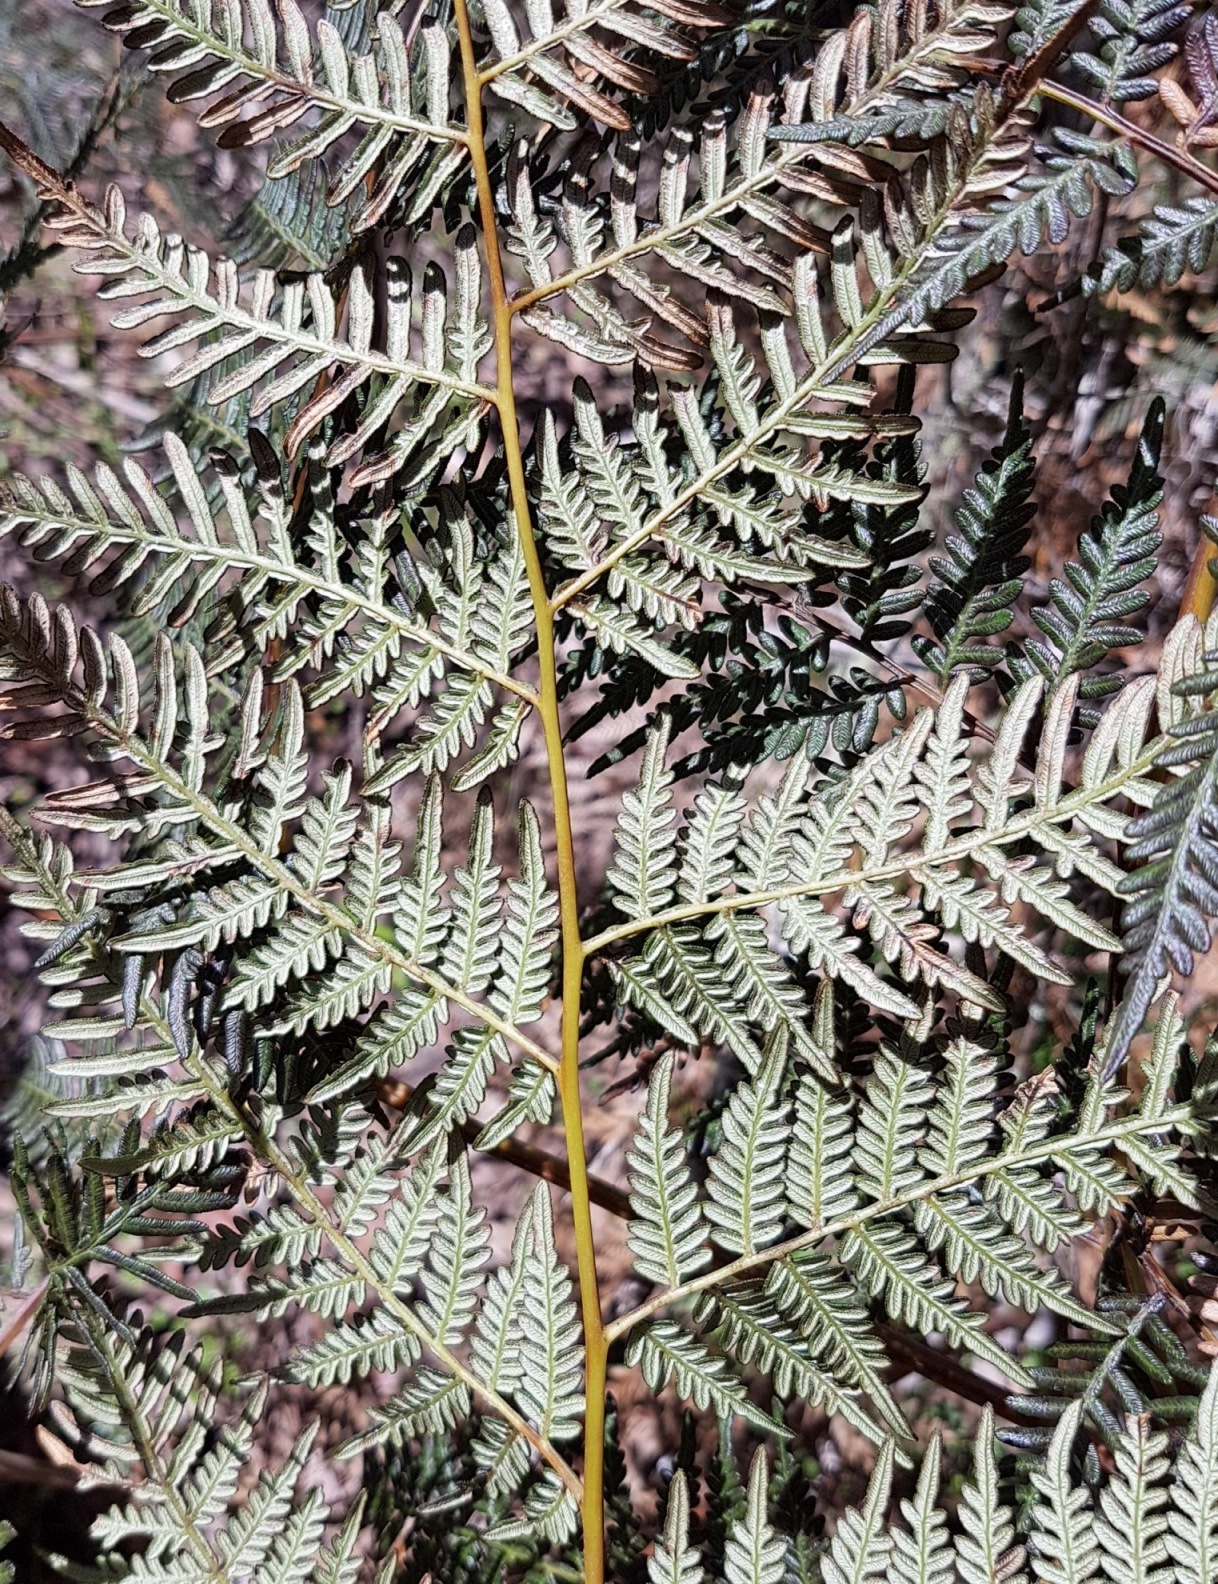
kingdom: Plantae
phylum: Tracheophyta
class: Polypodiopsida
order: Polypodiales
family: Dennstaedtiaceae
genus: Pteridium
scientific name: Pteridium esculentum
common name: Bracken fern
